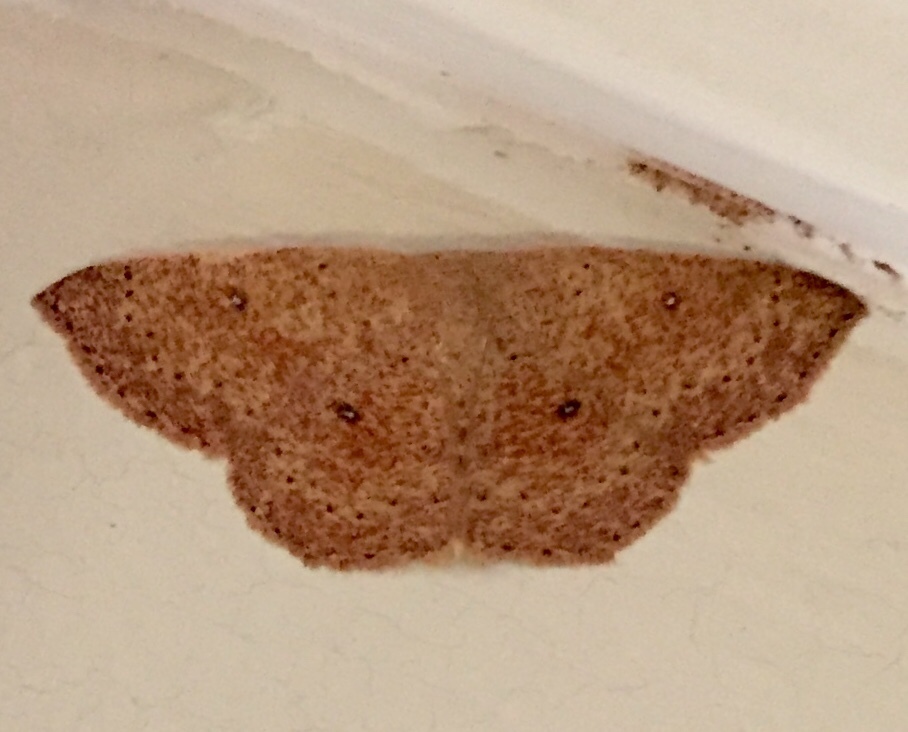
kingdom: Animalia
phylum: Arthropoda
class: Insecta
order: Lepidoptera
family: Geometridae
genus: Cyclophora
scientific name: Cyclophora packardi
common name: Packard's wave
